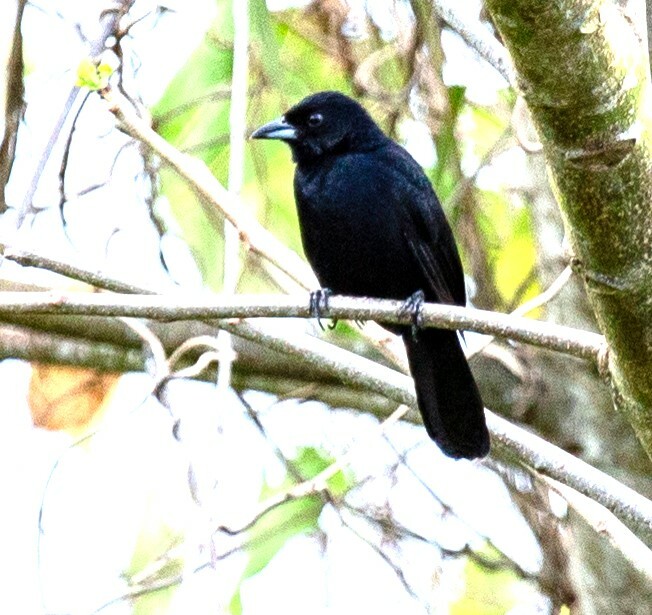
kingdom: Animalia
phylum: Chordata
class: Aves
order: Passeriformes
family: Thraupidae
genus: Tachyphonus
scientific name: Tachyphonus rufus
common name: White-lined tanager
